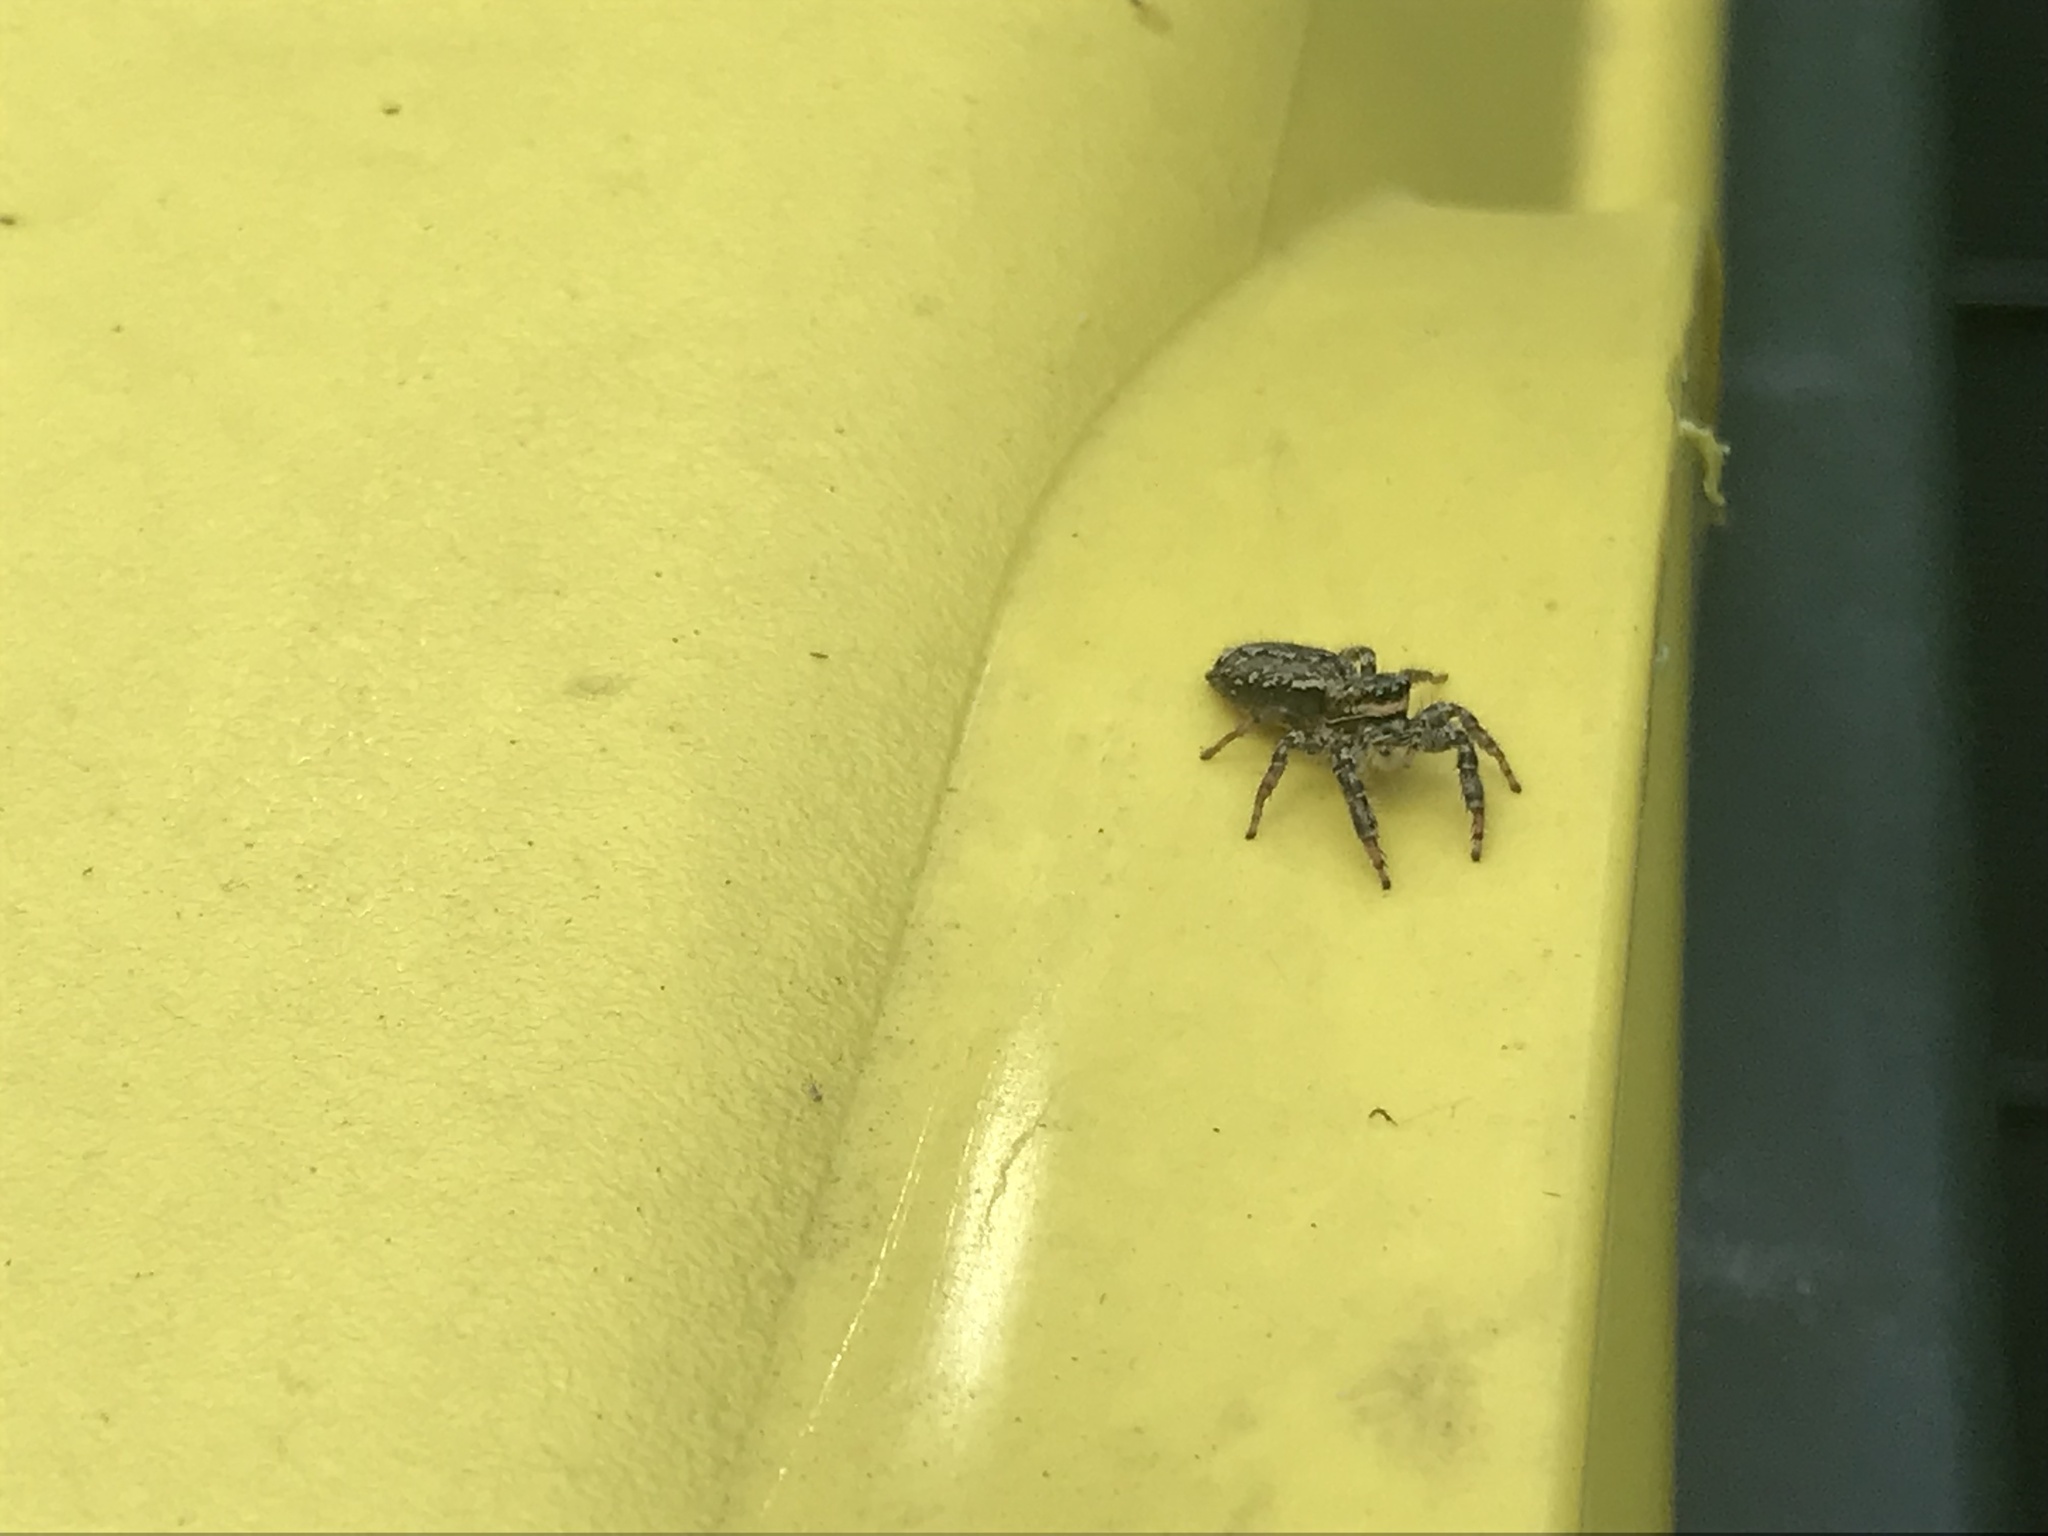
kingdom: Animalia
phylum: Arthropoda
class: Arachnida
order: Araneae
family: Salticidae
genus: Marpissa
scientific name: Marpissa muscosa
